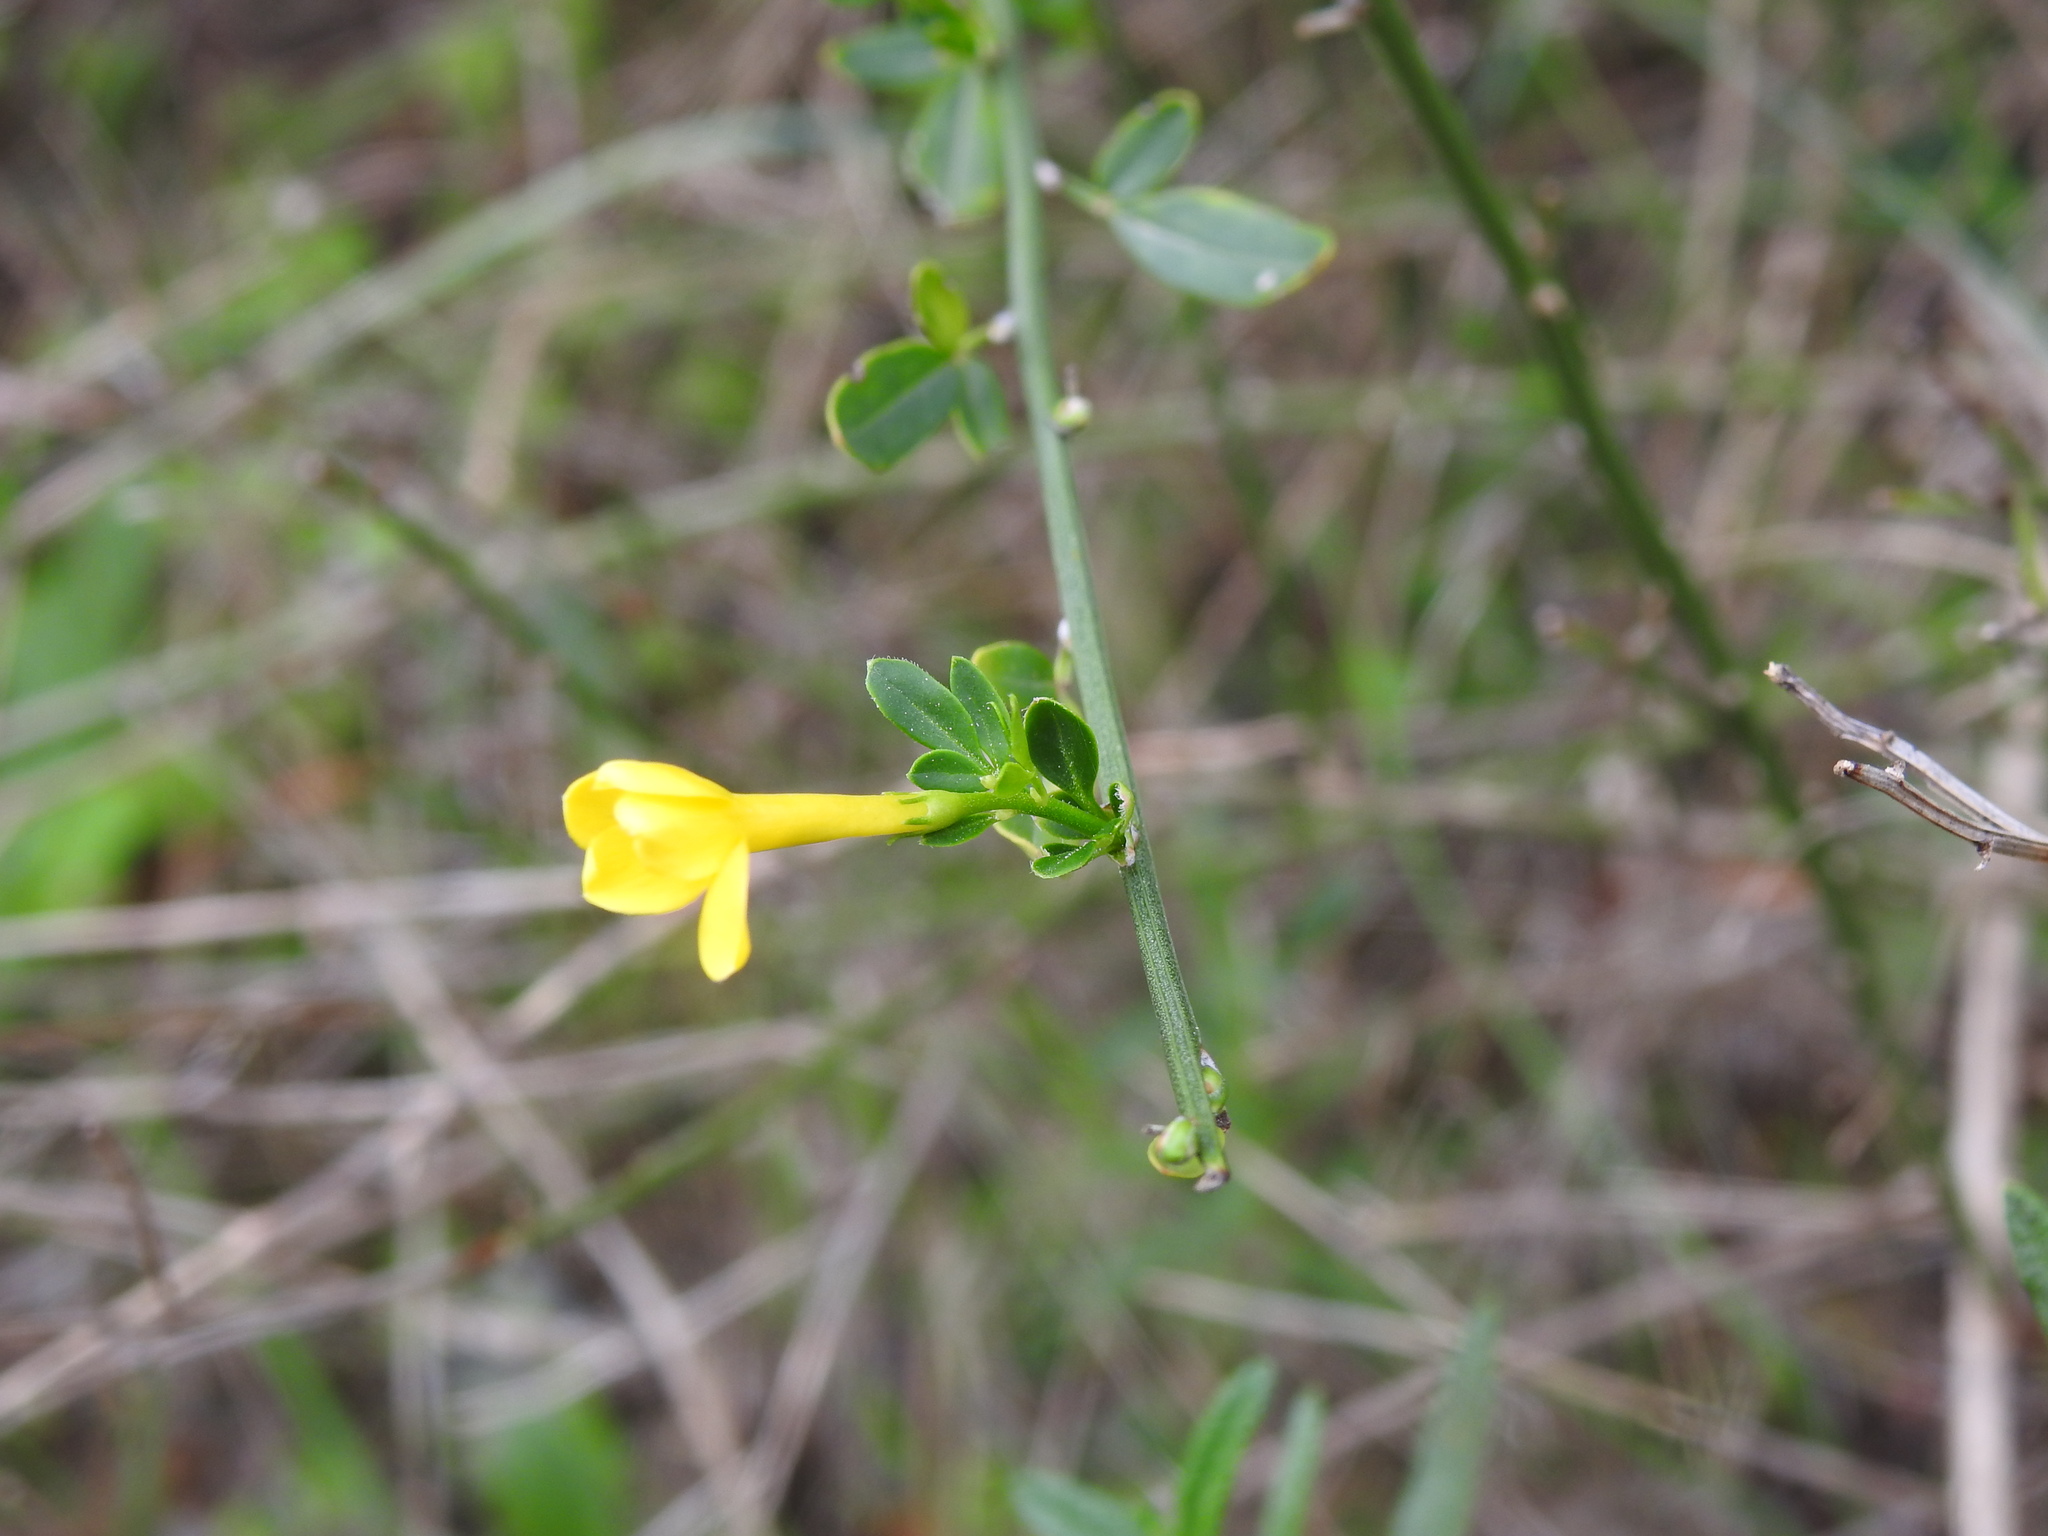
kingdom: Plantae
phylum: Tracheophyta
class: Magnoliopsida
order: Lamiales
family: Oleaceae
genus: Chrysojasminum
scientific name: Chrysojasminum fruticans
